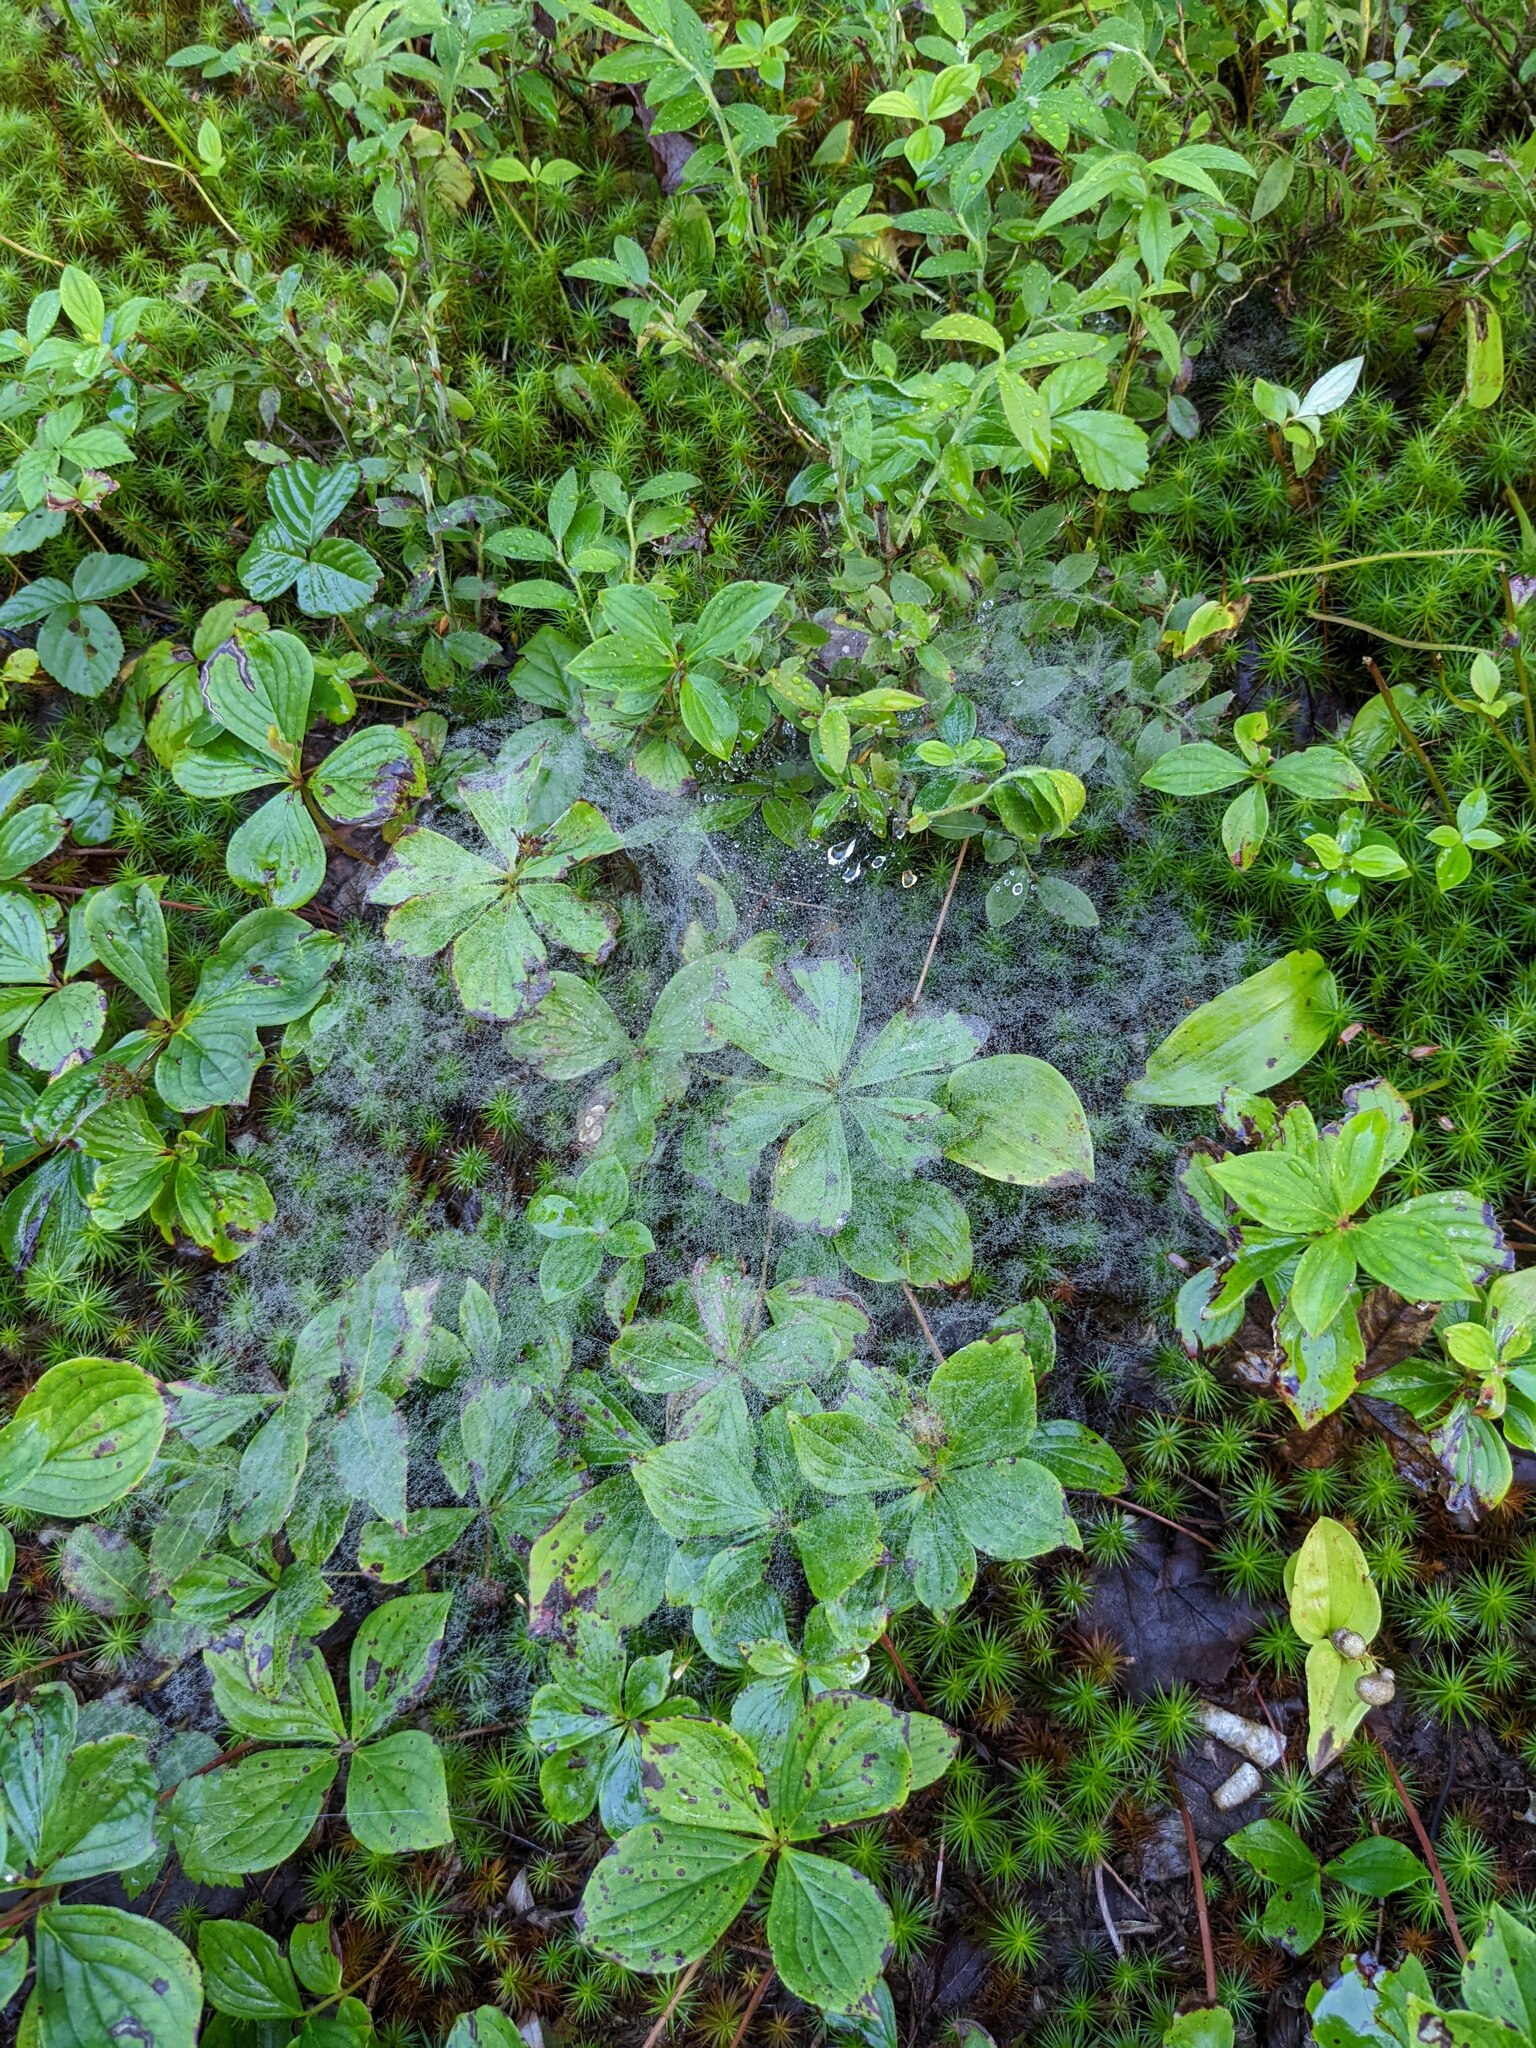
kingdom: Plantae
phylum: Tracheophyta
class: Magnoliopsida
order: Cornales
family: Cornaceae
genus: Cornus
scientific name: Cornus canadensis
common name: Creeping dogwood
